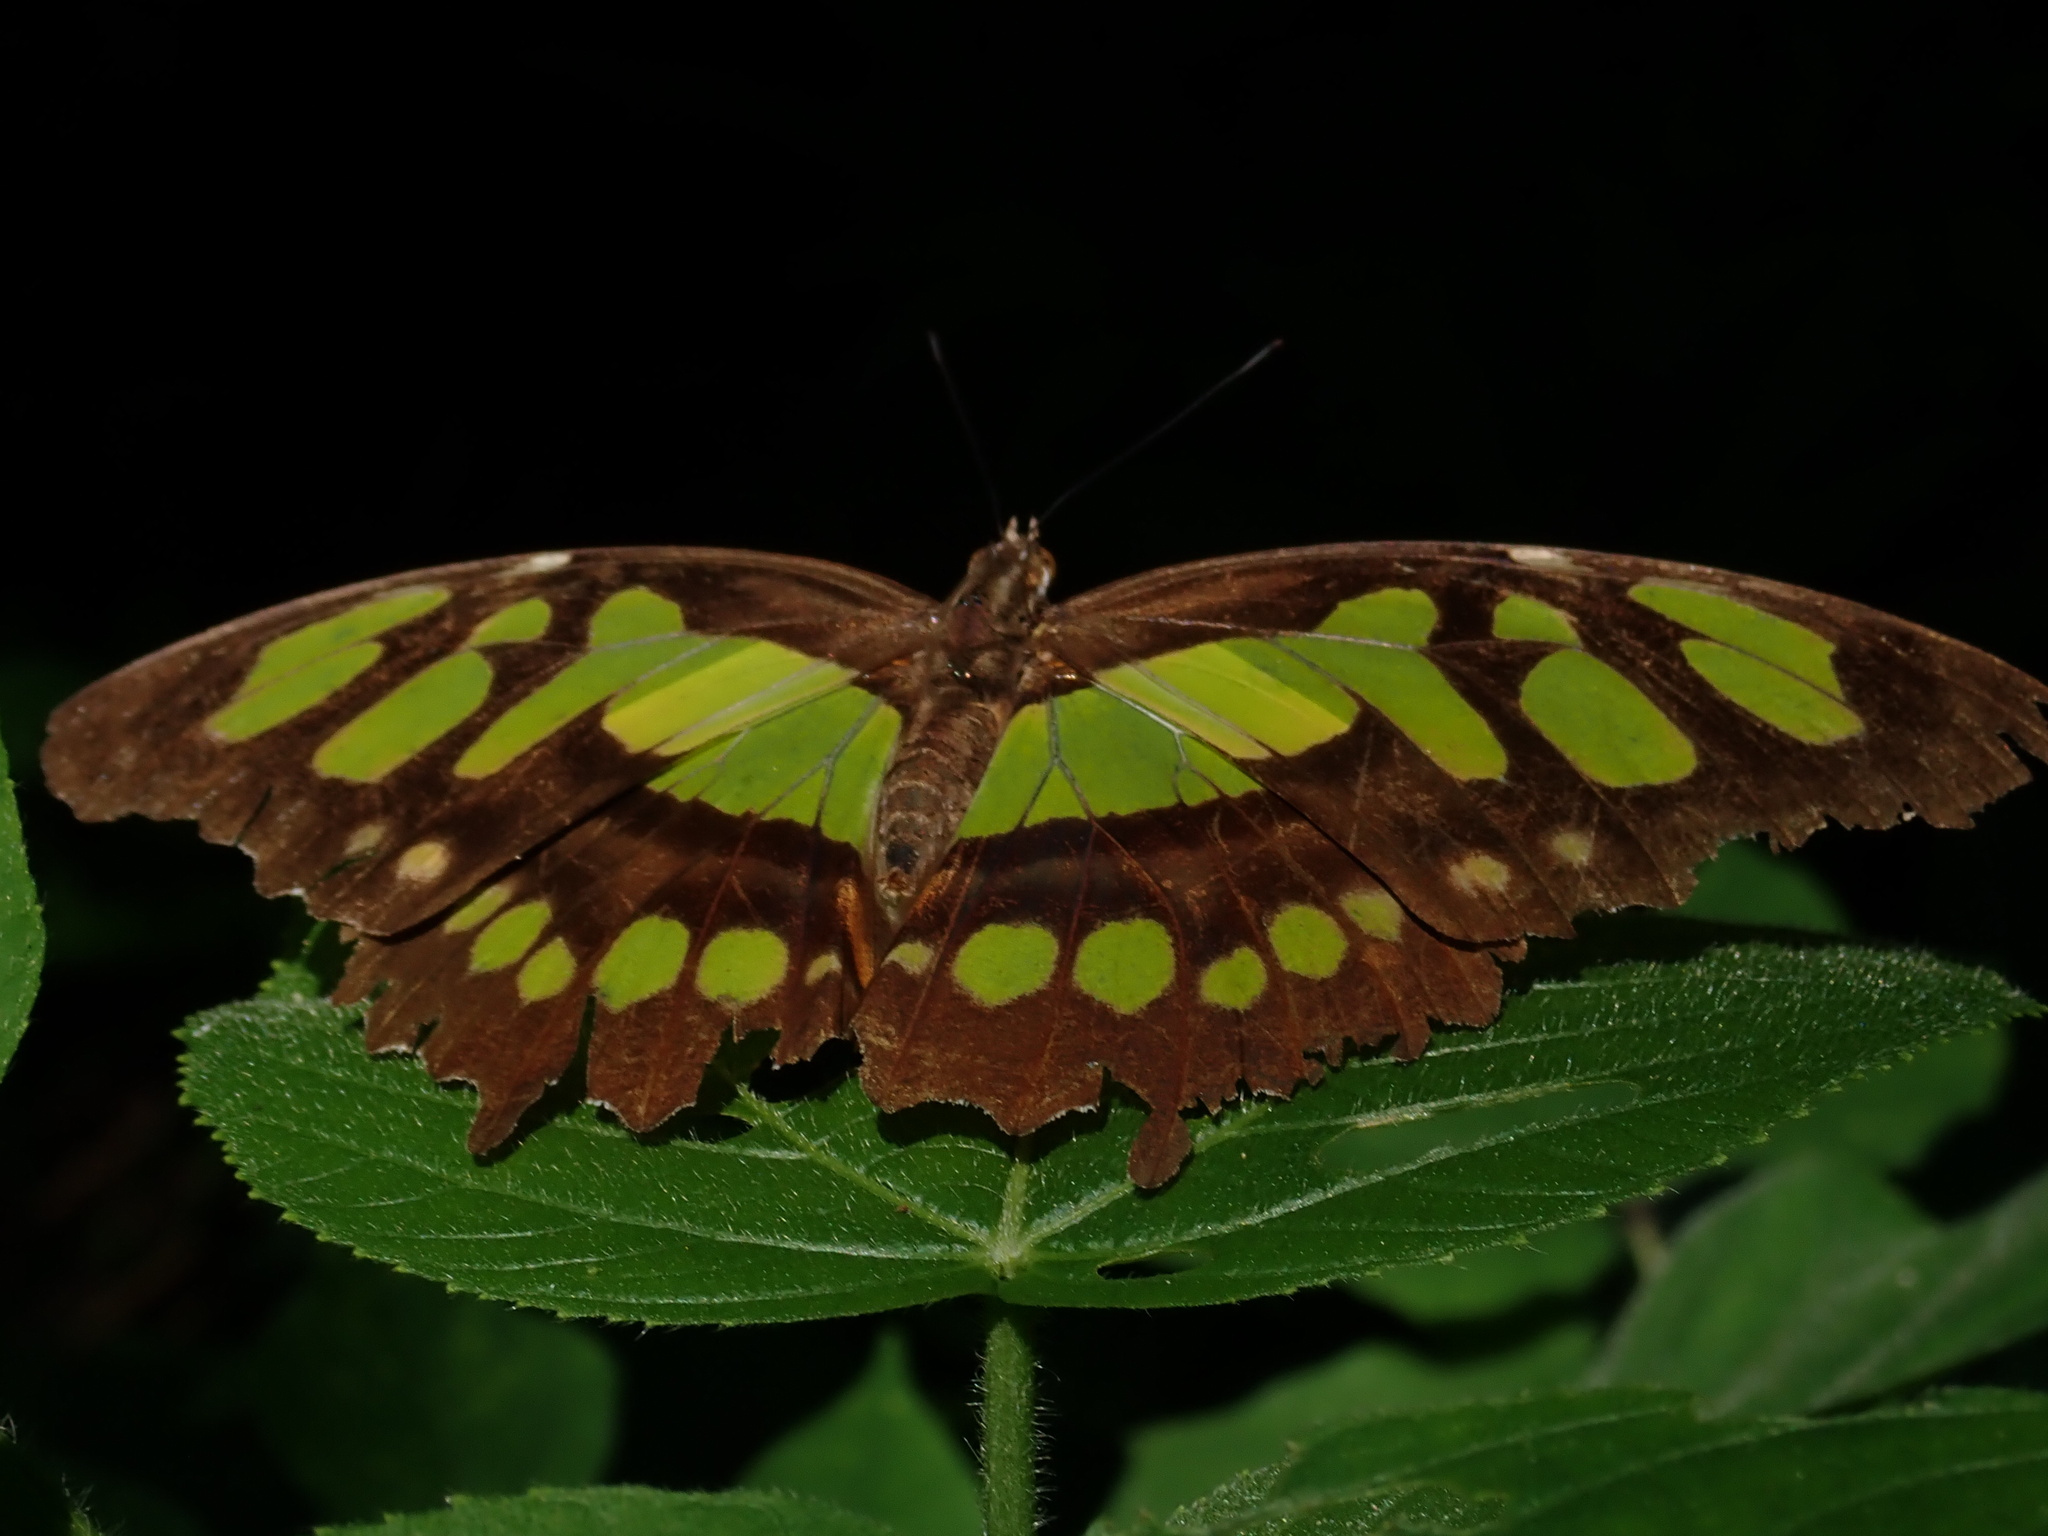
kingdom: Animalia
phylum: Arthropoda
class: Insecta
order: Lepidoptera
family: Nymphalidae
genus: Siproeta
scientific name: Siproeta stelenes
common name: Malachite
